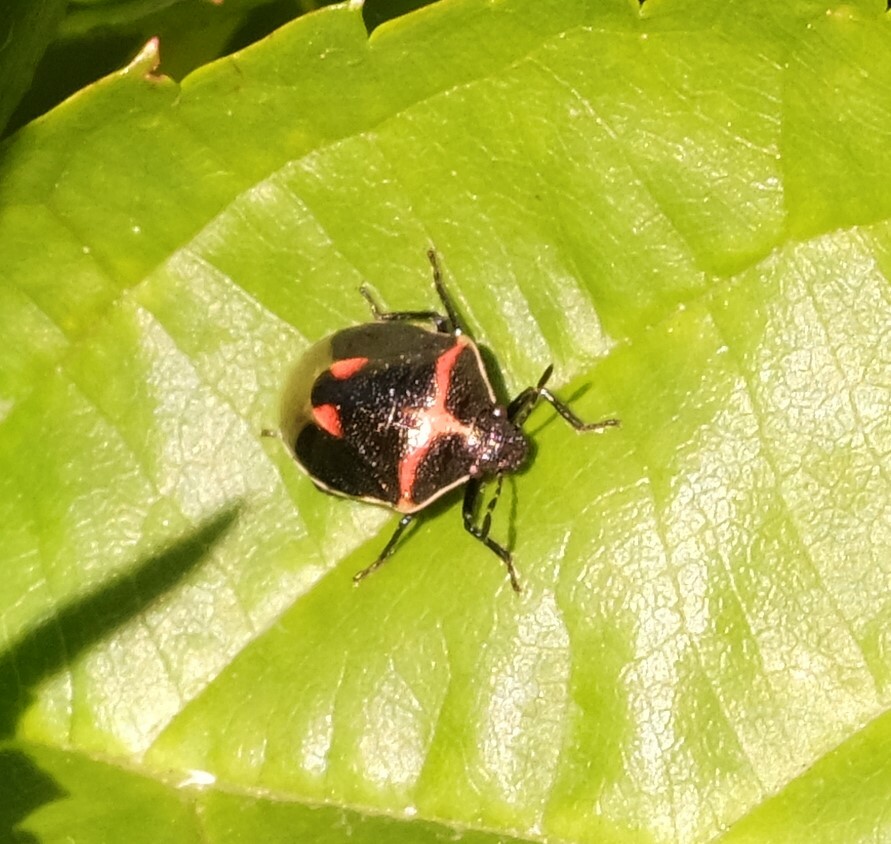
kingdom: Animalia
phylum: Arthropoda
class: Insecta
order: Hemiptera
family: Pentatomidae
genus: Cosmopepla
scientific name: Cosmopepla lintneriana
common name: Twice-stabbed stink bug
